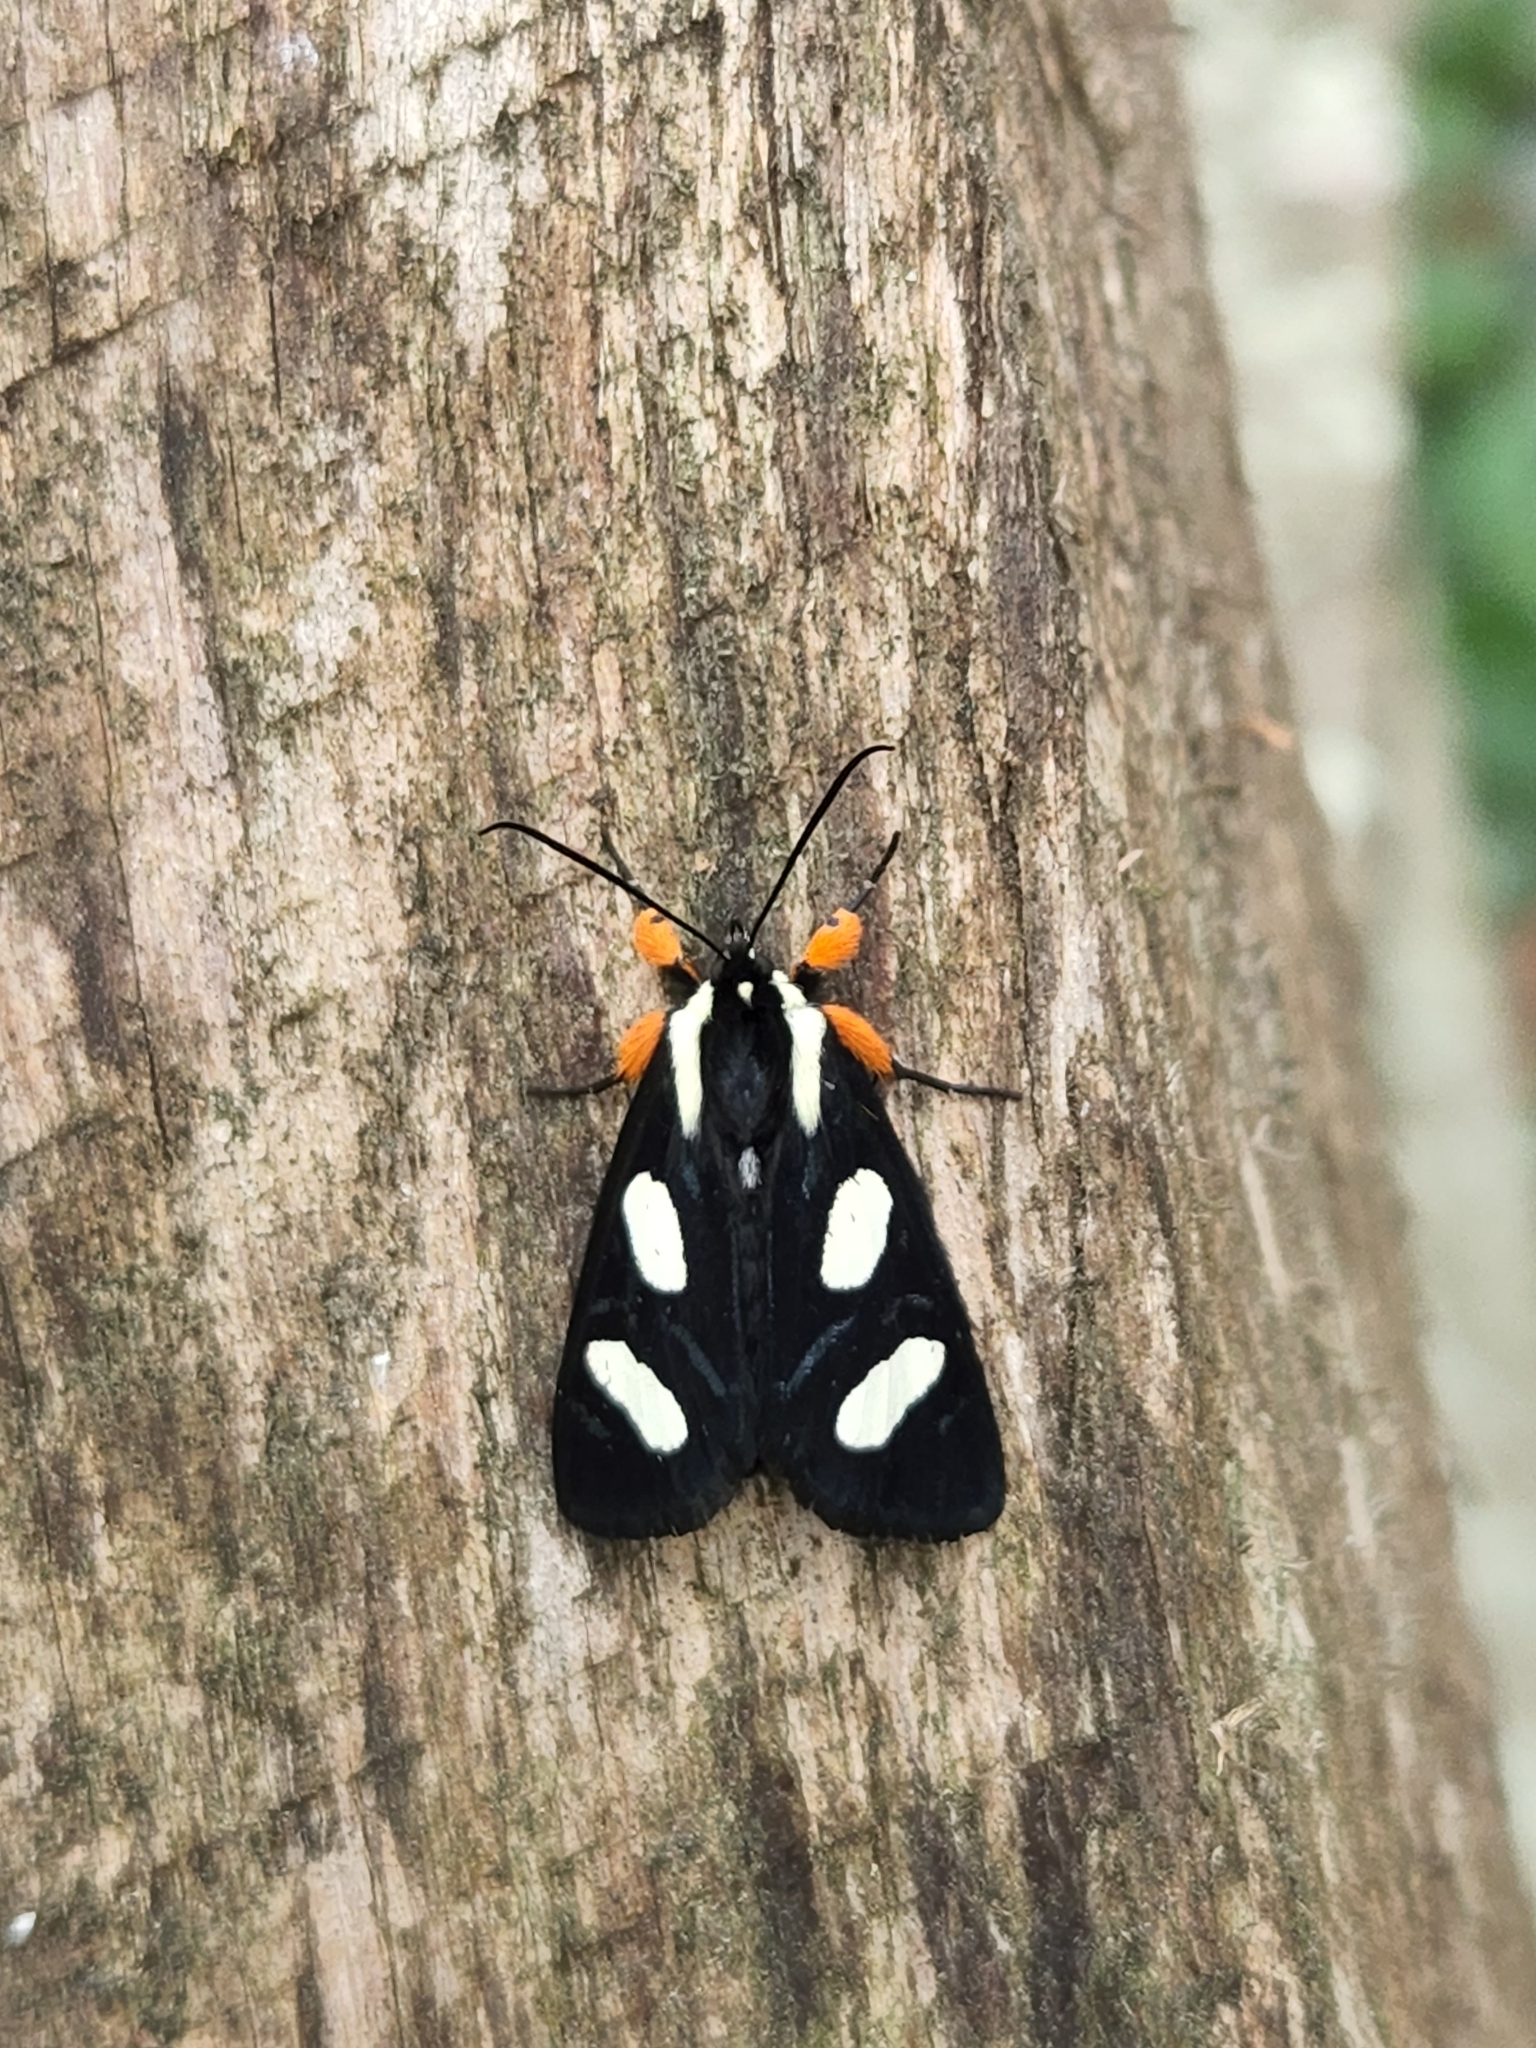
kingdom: Animalia
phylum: Arthropoda
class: Insecta
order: Lepidoptera
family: Noctuidae
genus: Alypia
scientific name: Alypia octomaculata
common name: Eight-spotted forester
